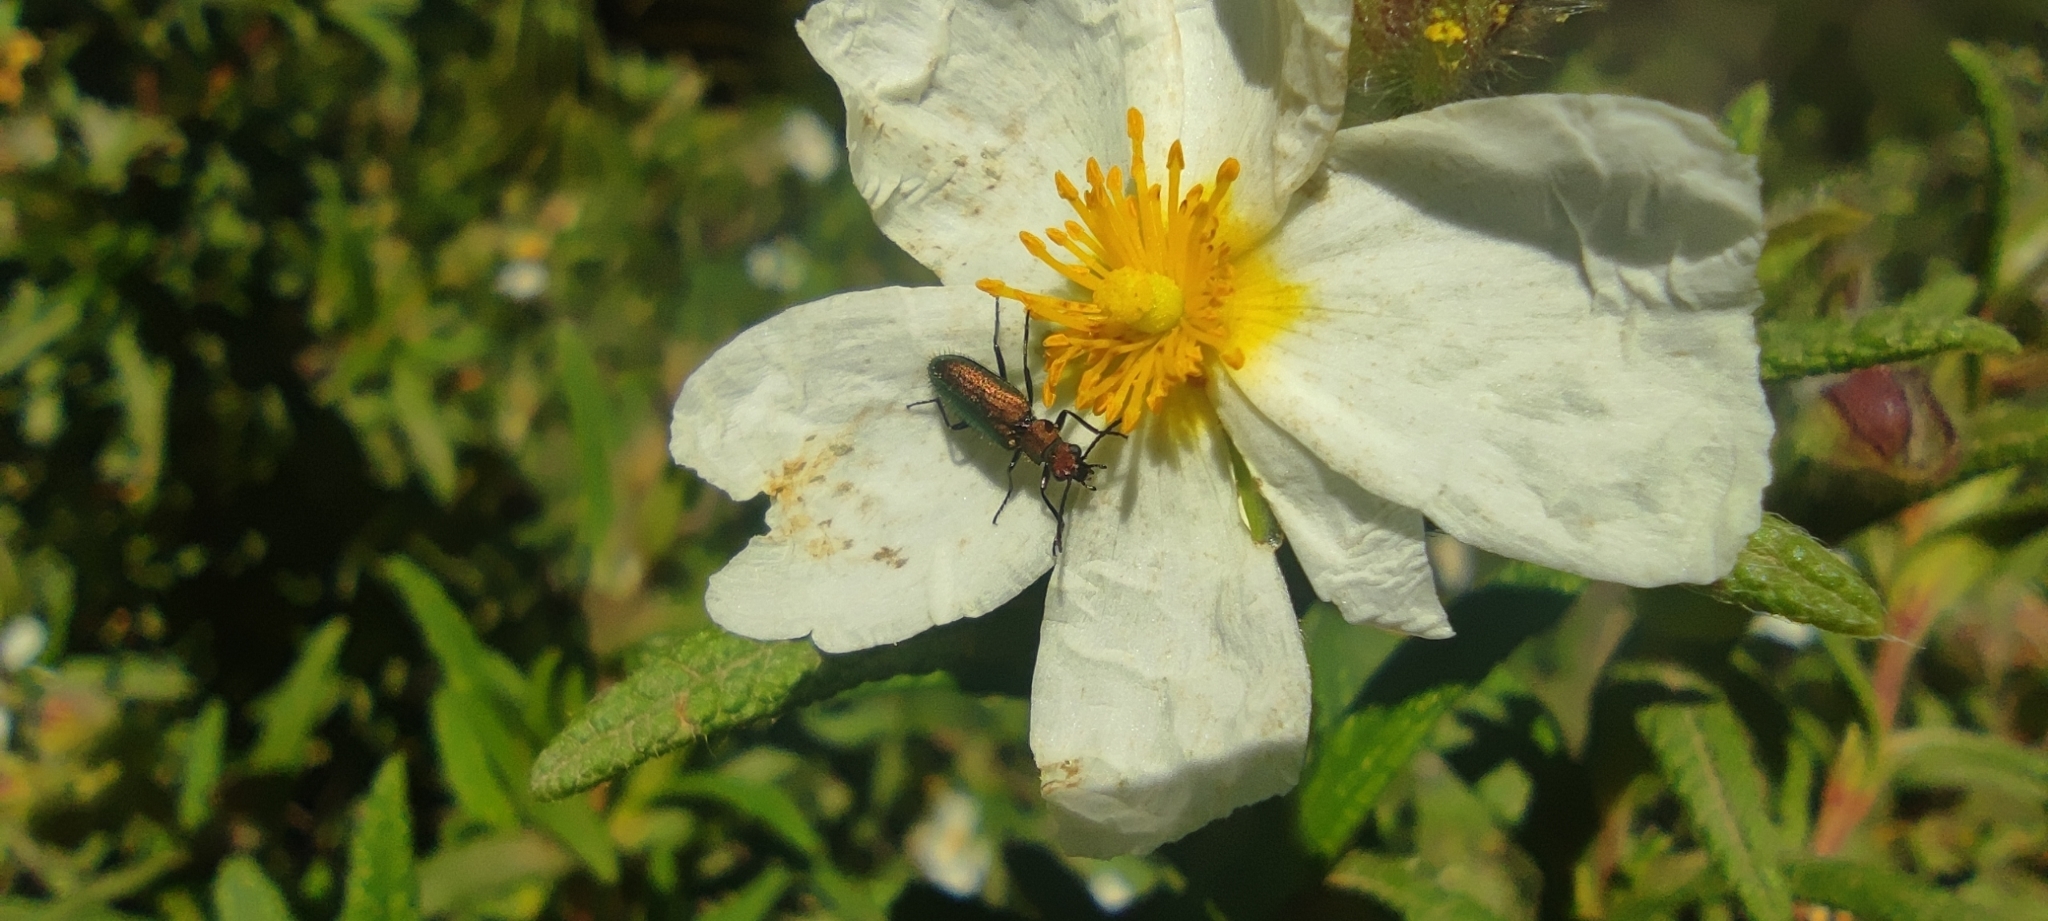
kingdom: Plantae
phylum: Tracheophyta
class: Magnoliopsida
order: Malvales
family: Cistaceae
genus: Cistus
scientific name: Cistus monspeliensis
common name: Montpelier cistus
